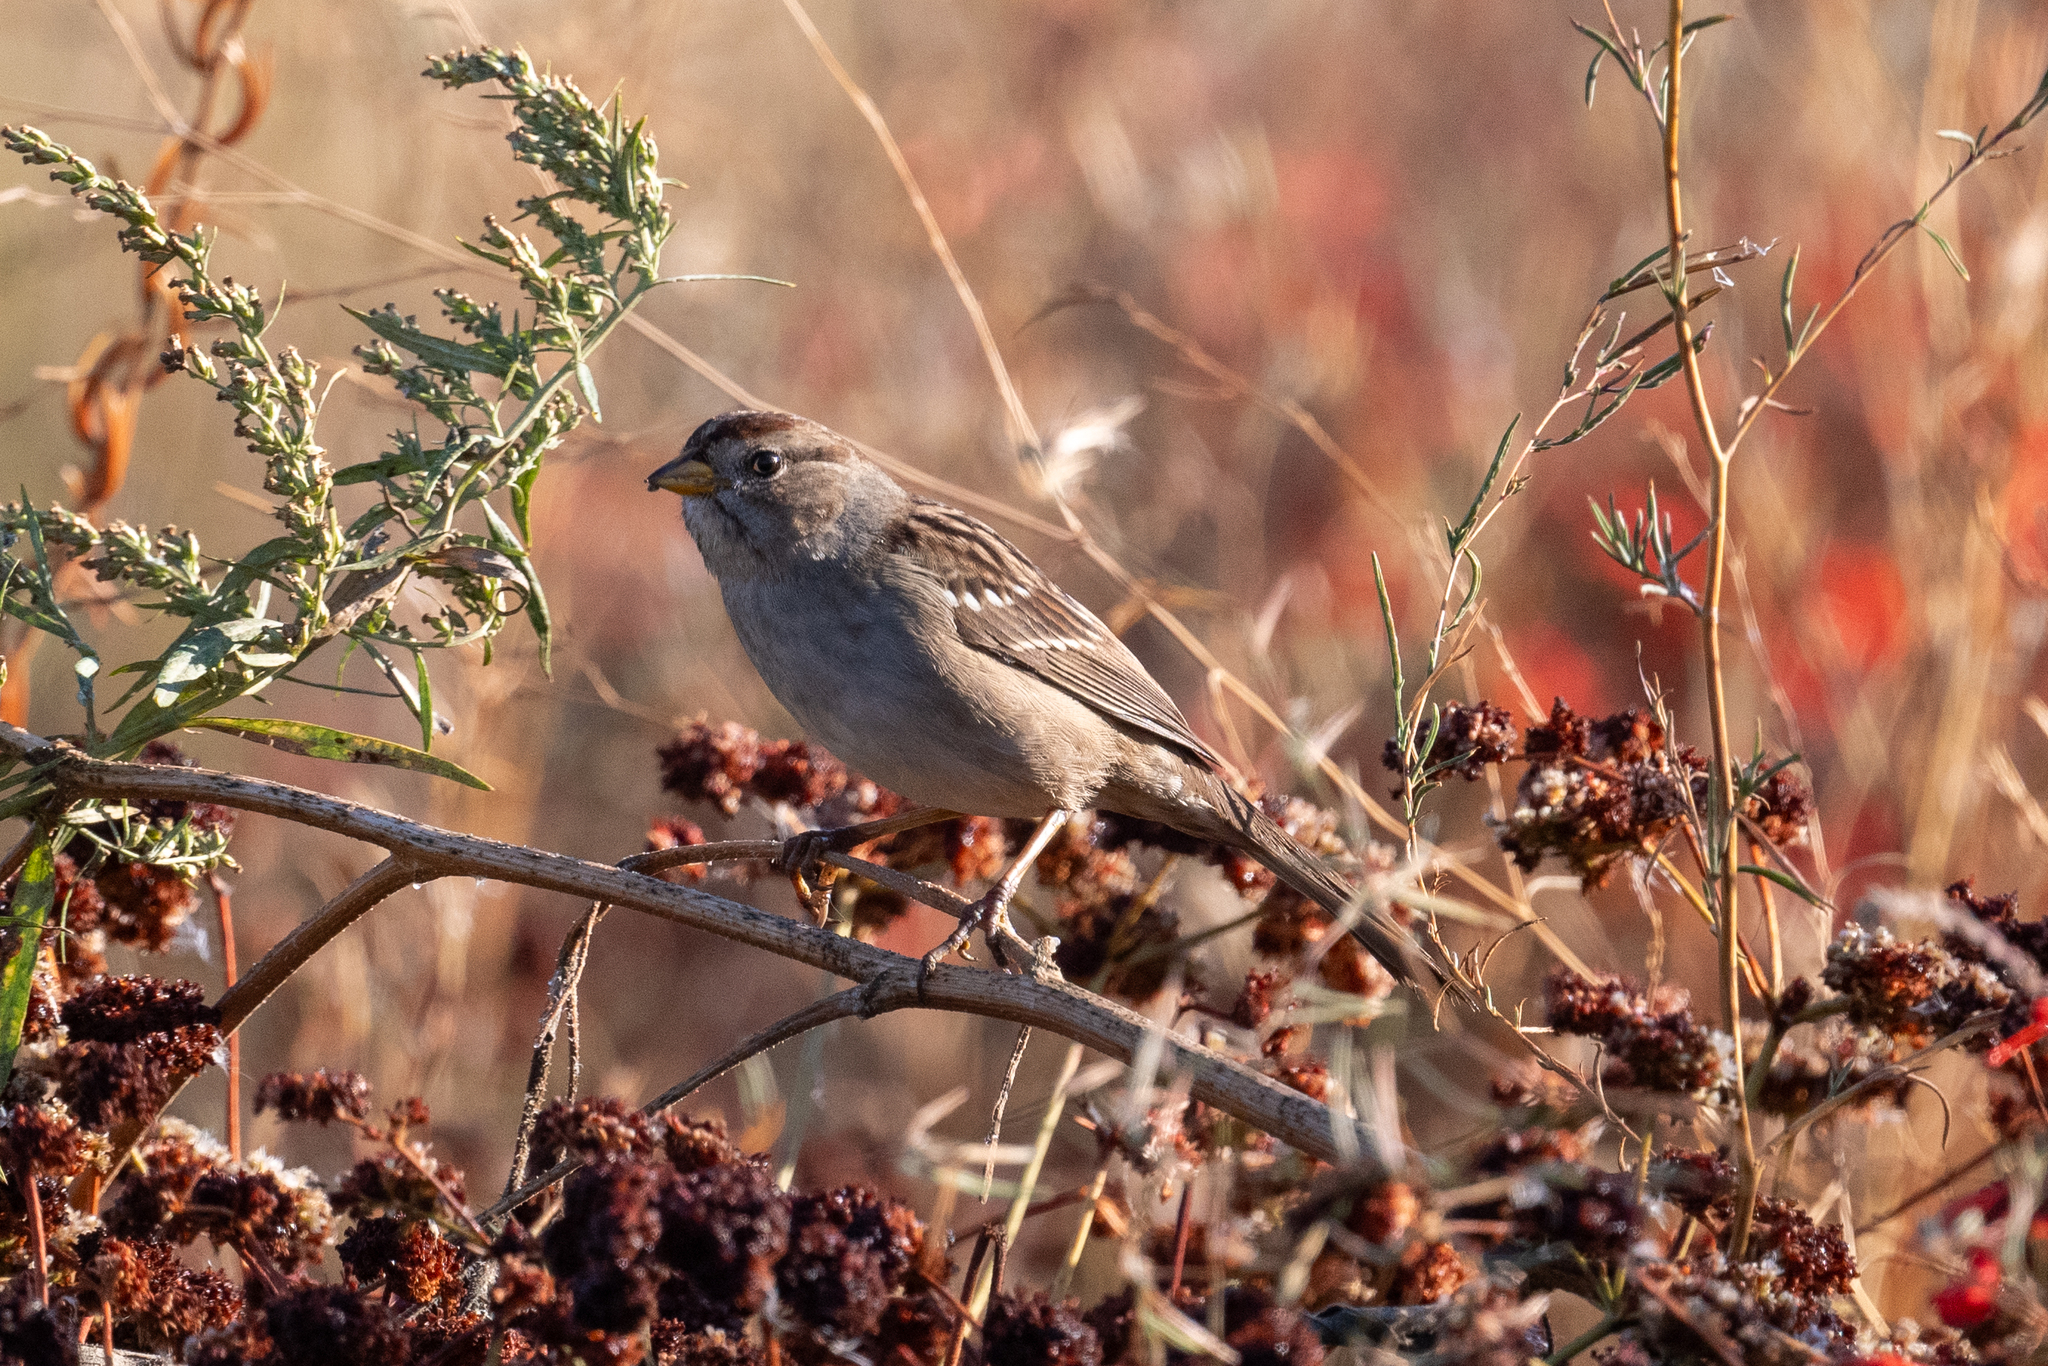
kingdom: Animalia
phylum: Chordata
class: Aves
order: Passeriformes
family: Passerellidae
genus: Zonotrichia
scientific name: Zonotrichia leucophrys
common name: White-crowned sparrow
